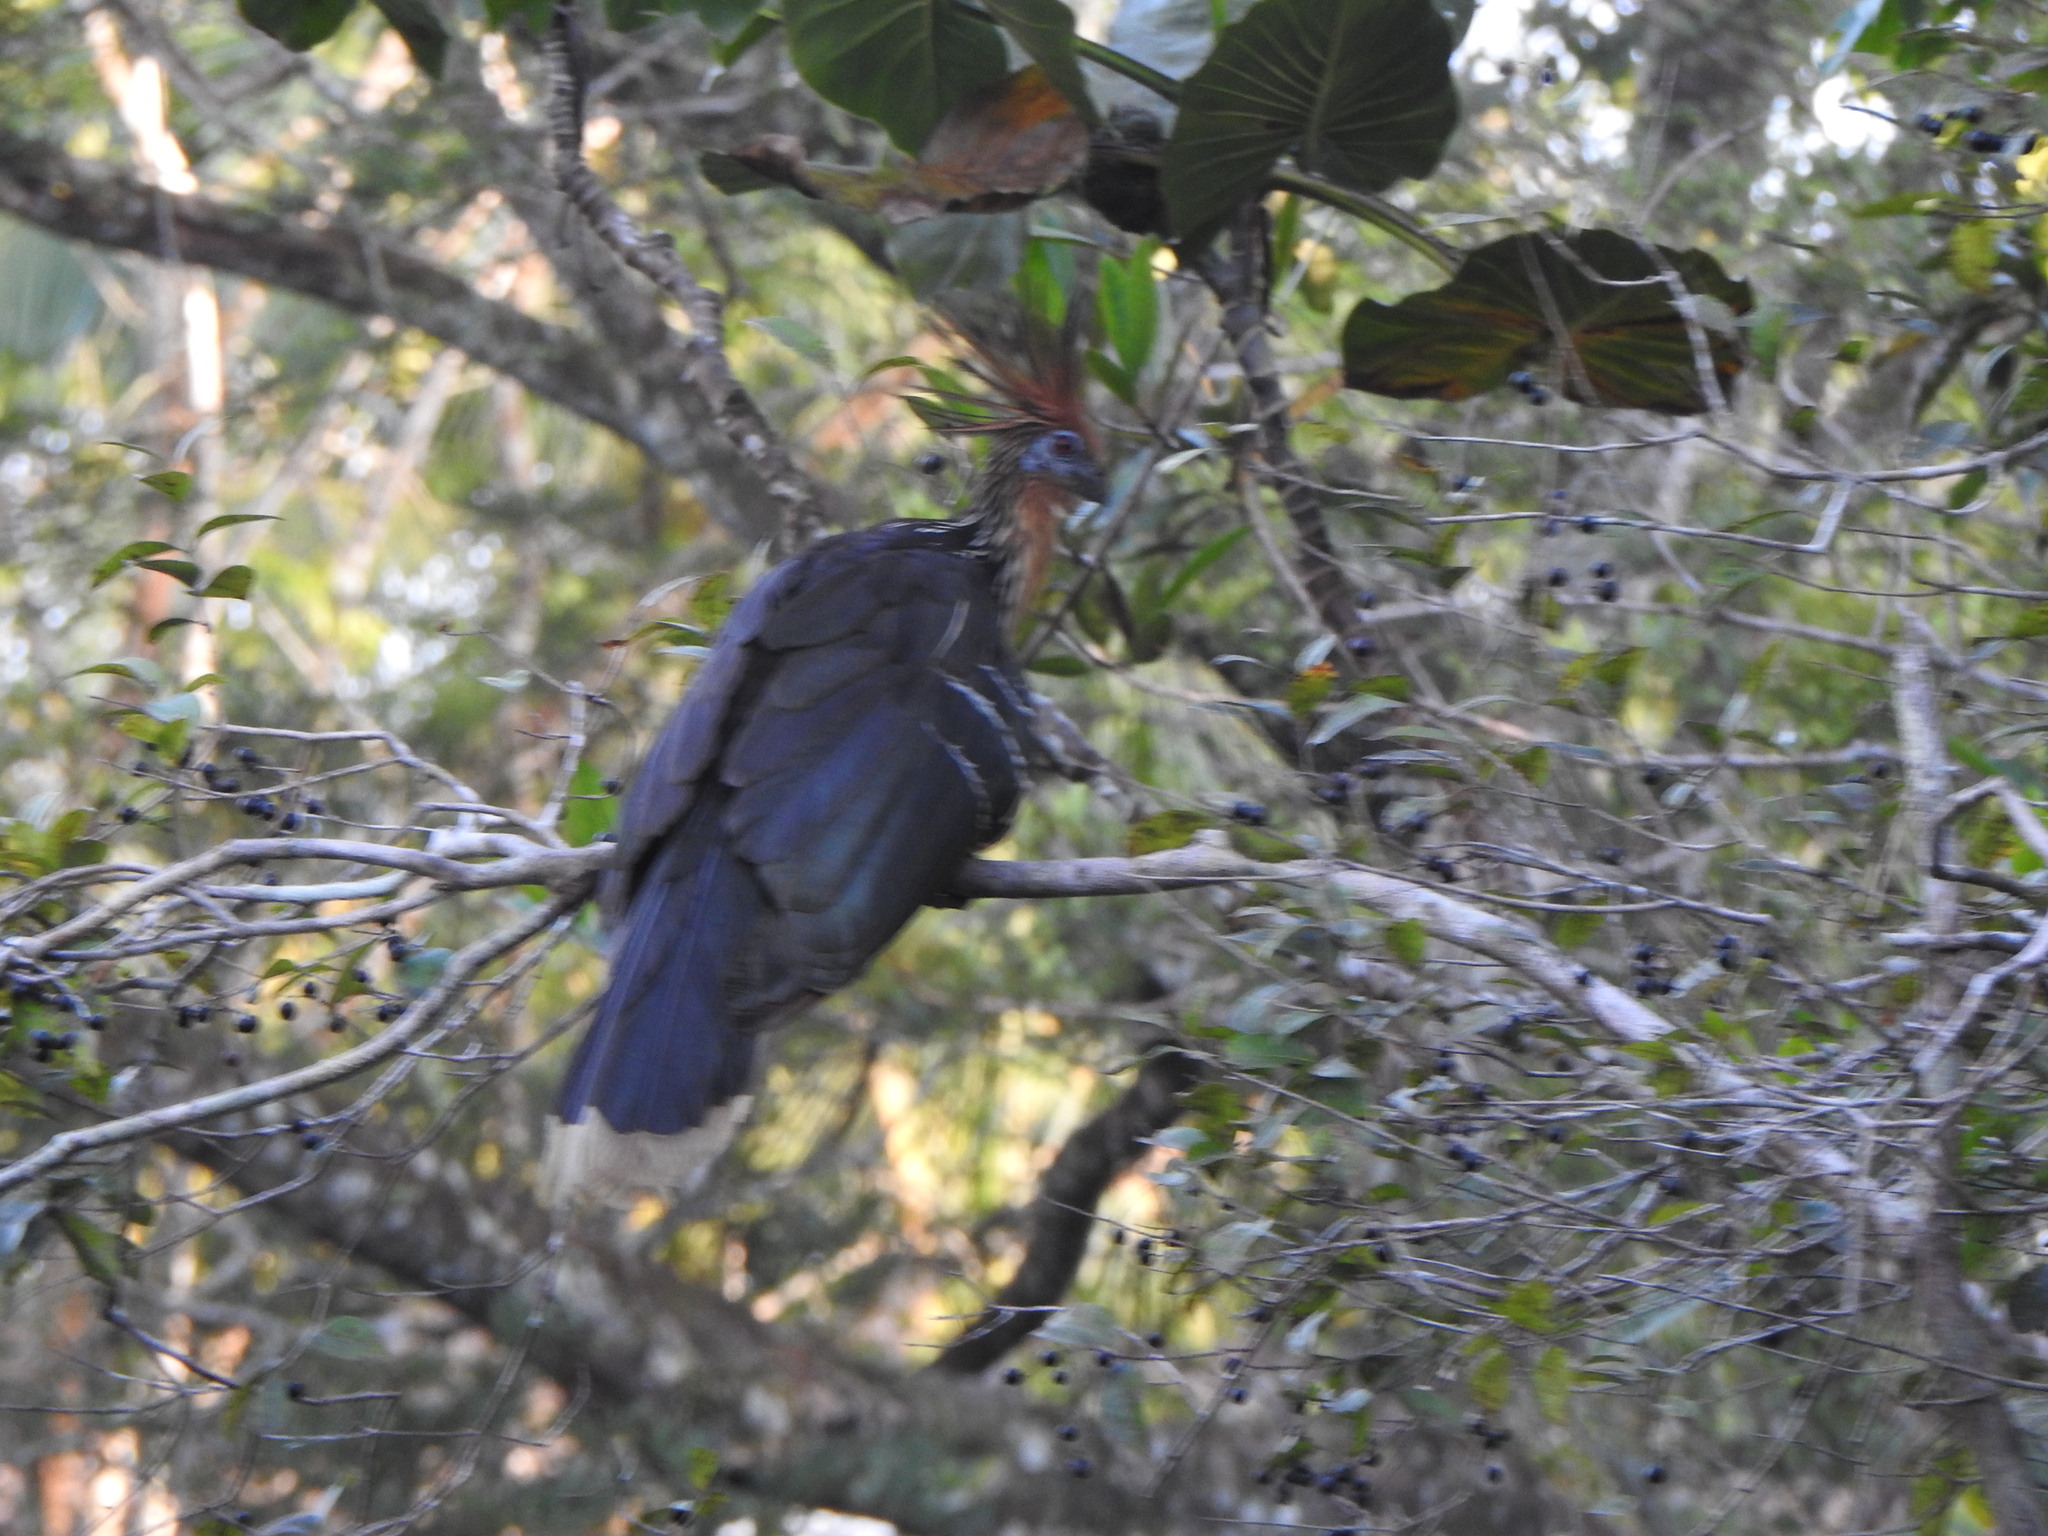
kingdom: Animalia
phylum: Chordata
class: Aves
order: Opisthocomiformes
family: Opisthocomidae
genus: Opisthocomus
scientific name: Opisthocomus hoazin
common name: Hoatzin
